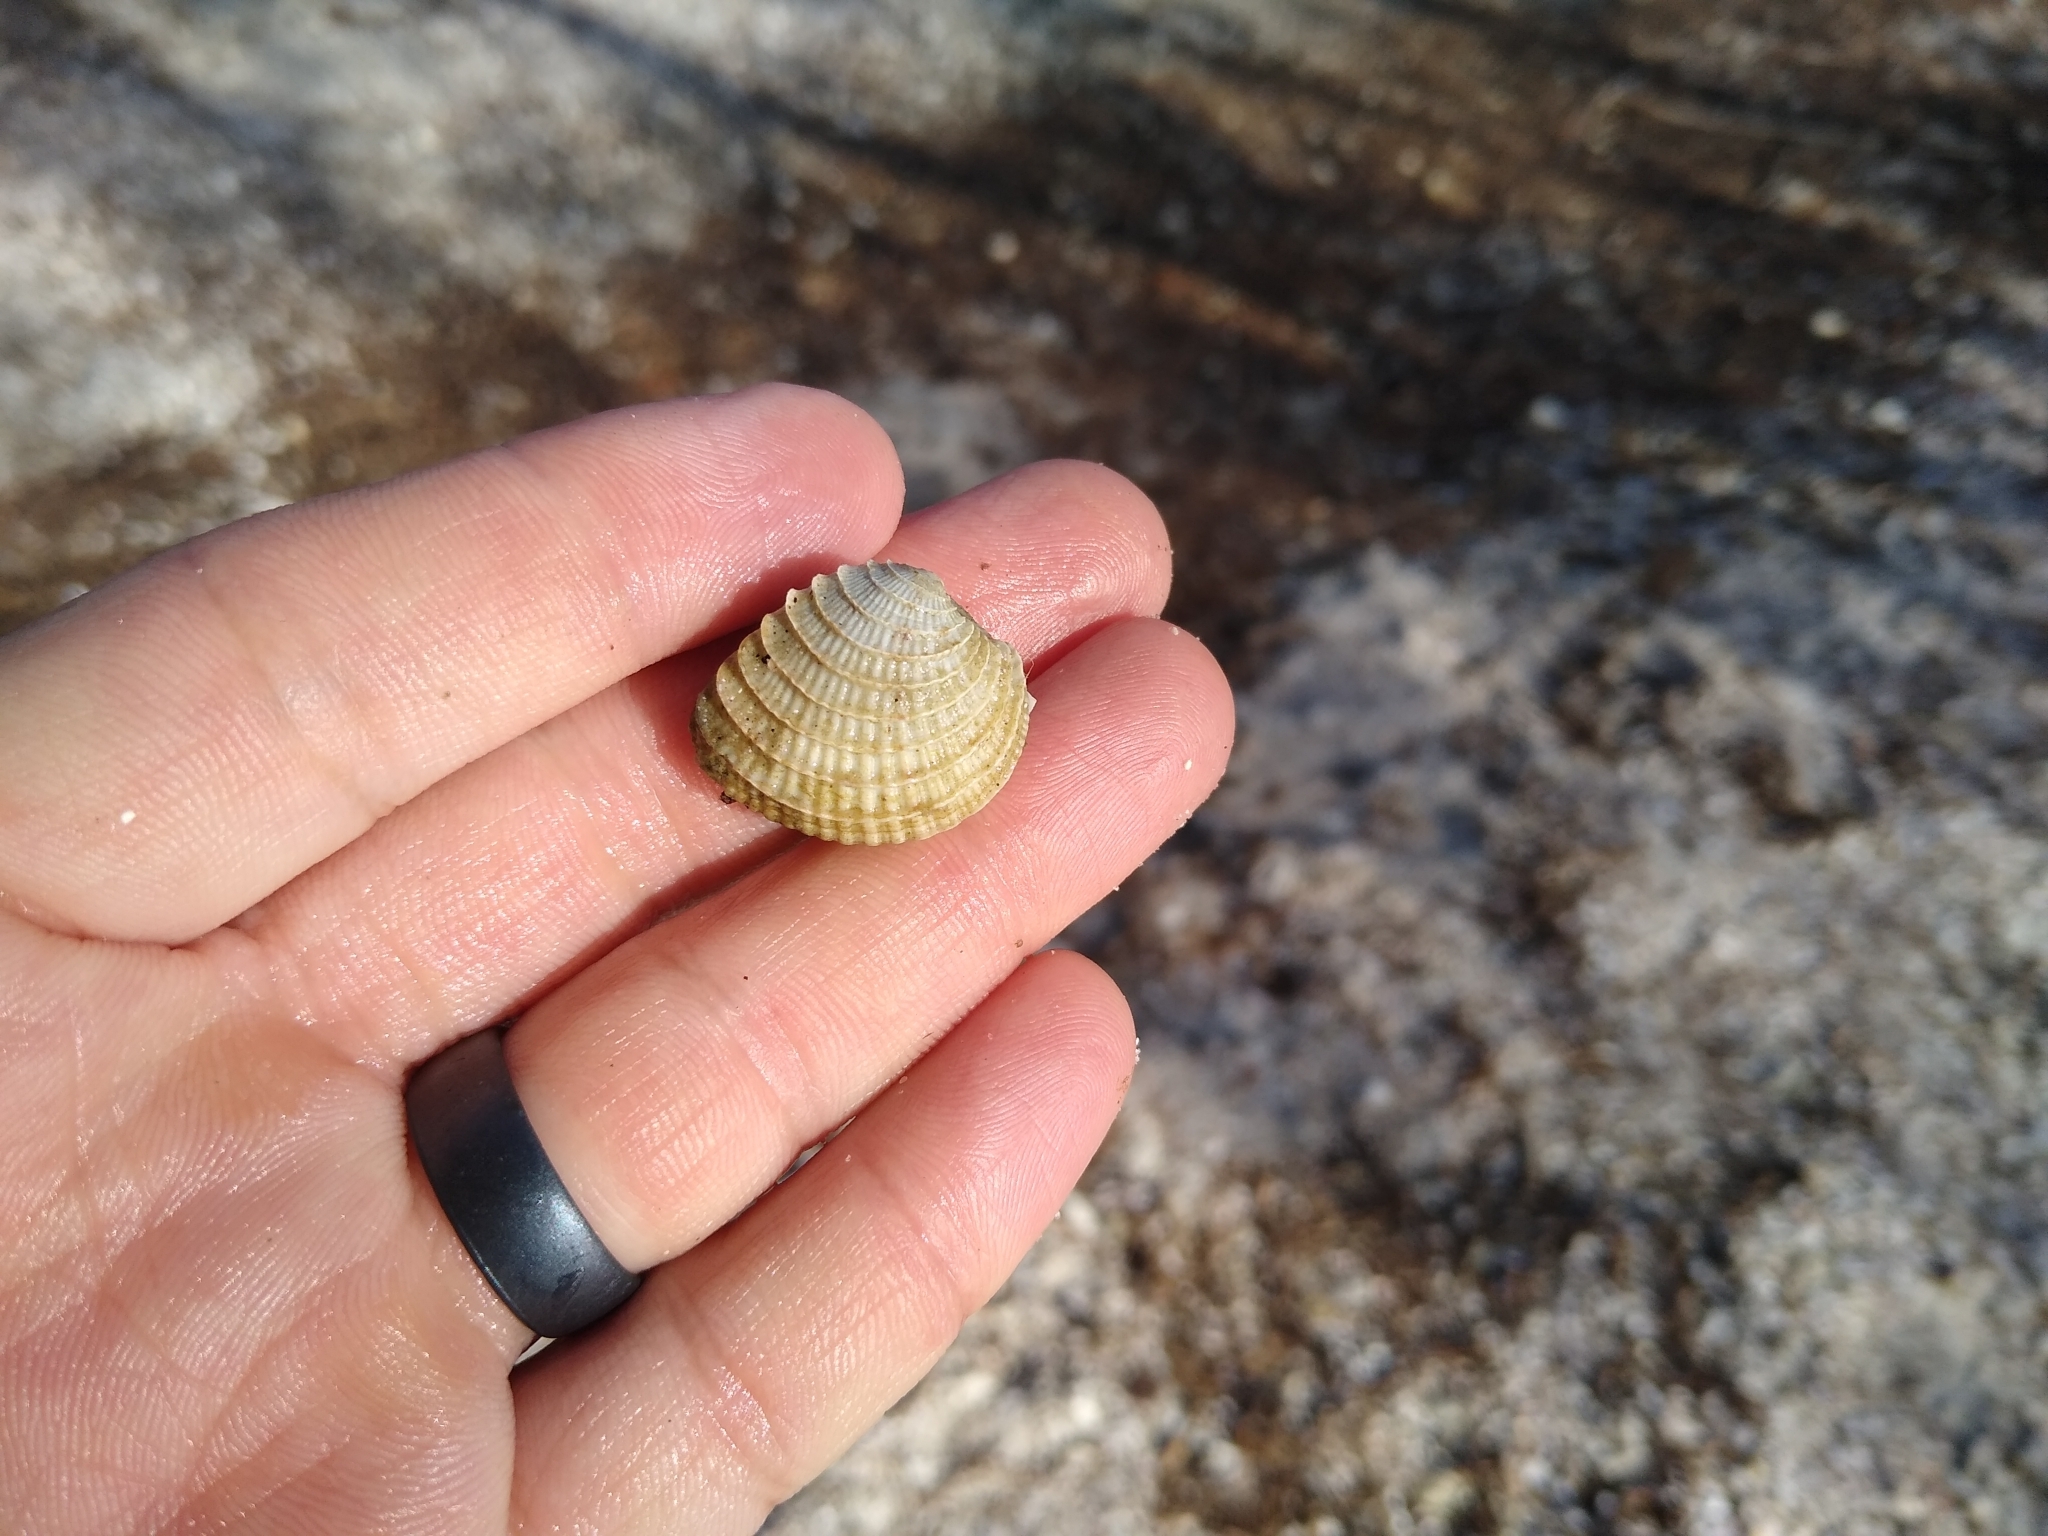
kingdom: Animalia
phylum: Mollusca
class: Bivalvia
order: Venerida
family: Veneridae
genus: Chione
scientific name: Chione elevata
